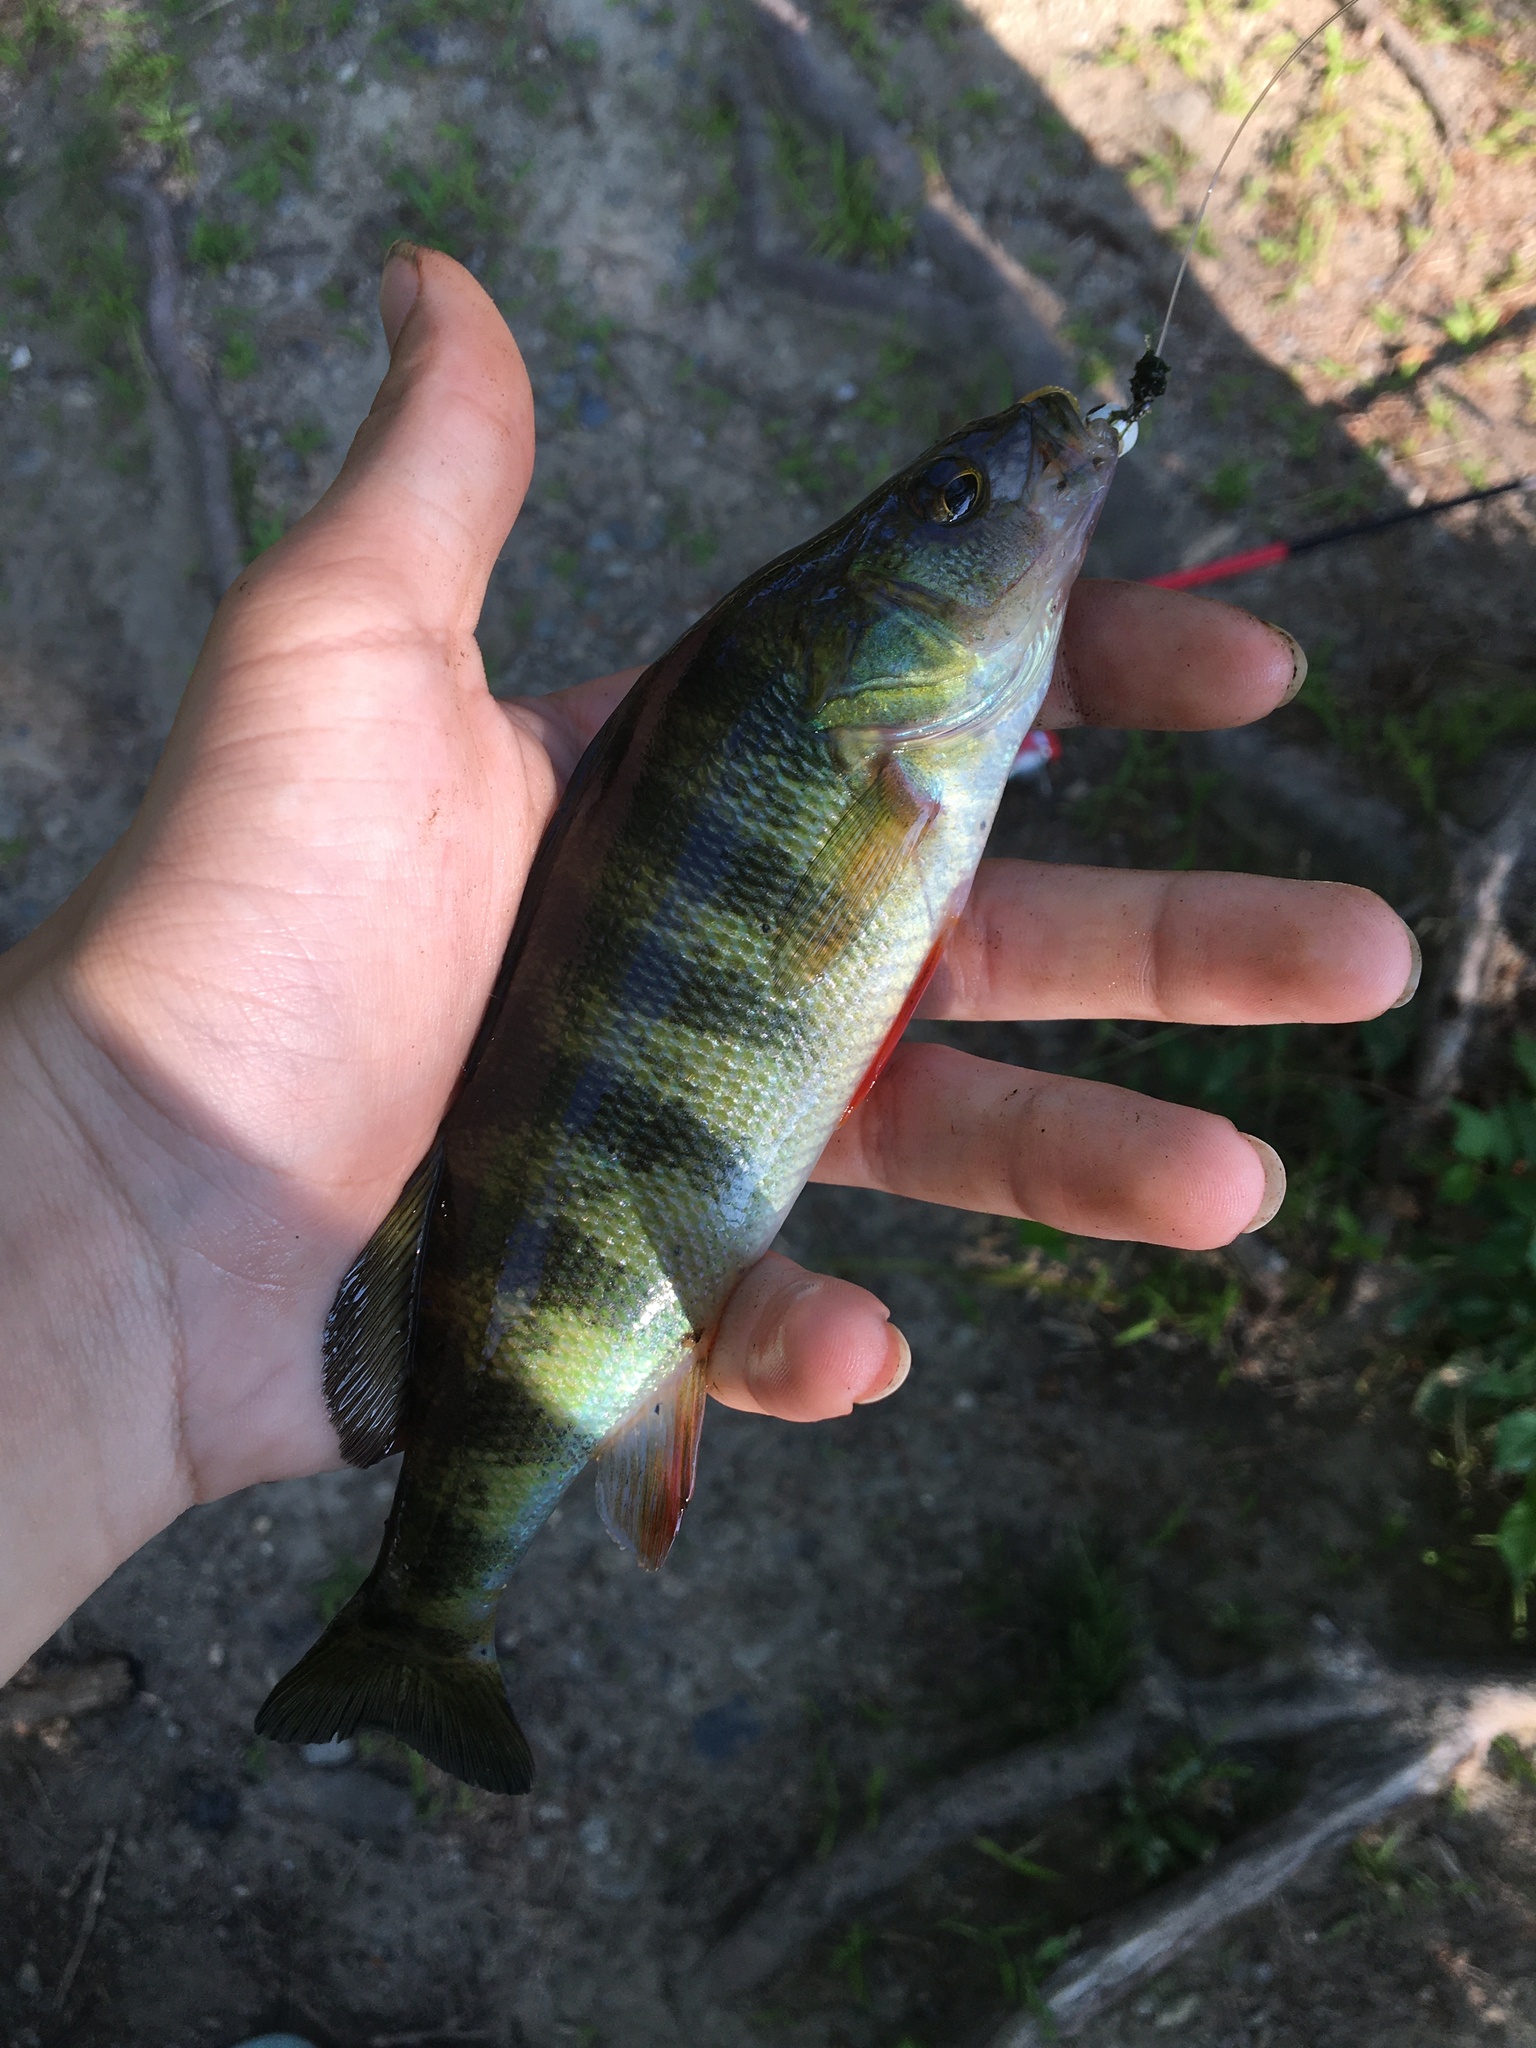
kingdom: Animalia
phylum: Chordata
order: Perciformes
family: Percidae
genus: Perca
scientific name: Perca flavescens
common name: Yellow perch
